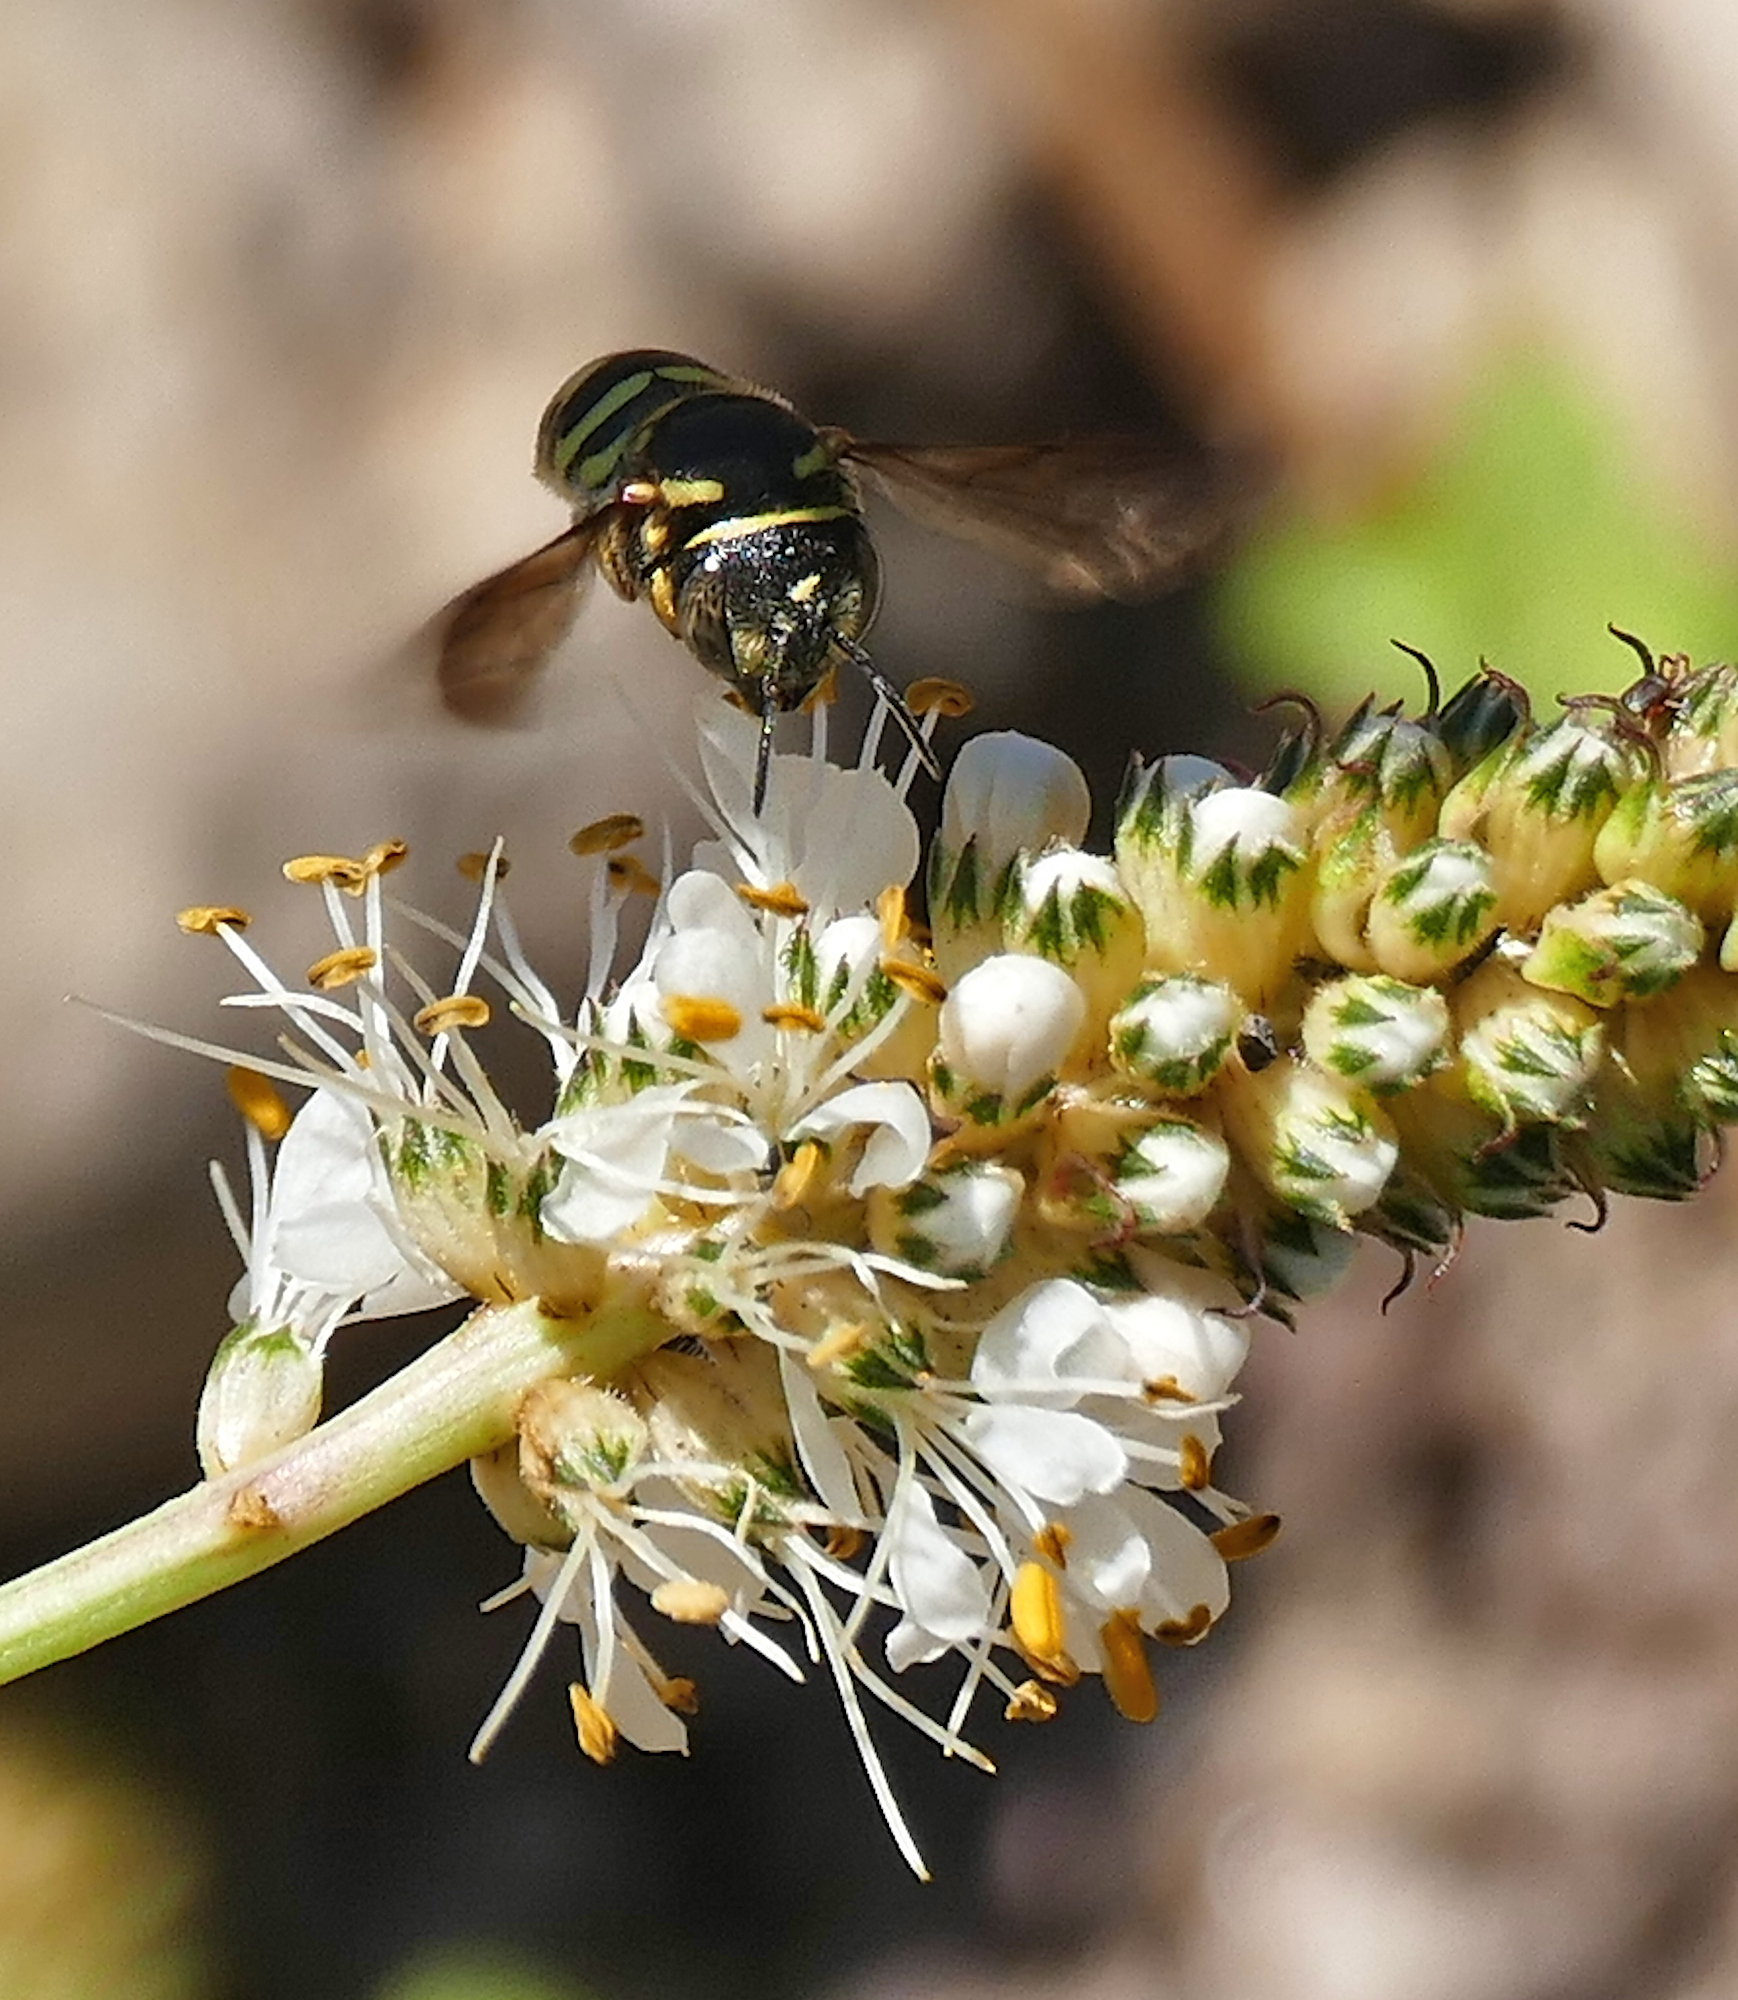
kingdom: Animalia
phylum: Arthropoda
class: Insecta
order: Hymenoptera
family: Megachilidae
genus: Anthidiellum
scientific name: Anthidiellum notatum
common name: Northern rotund-resin bee
